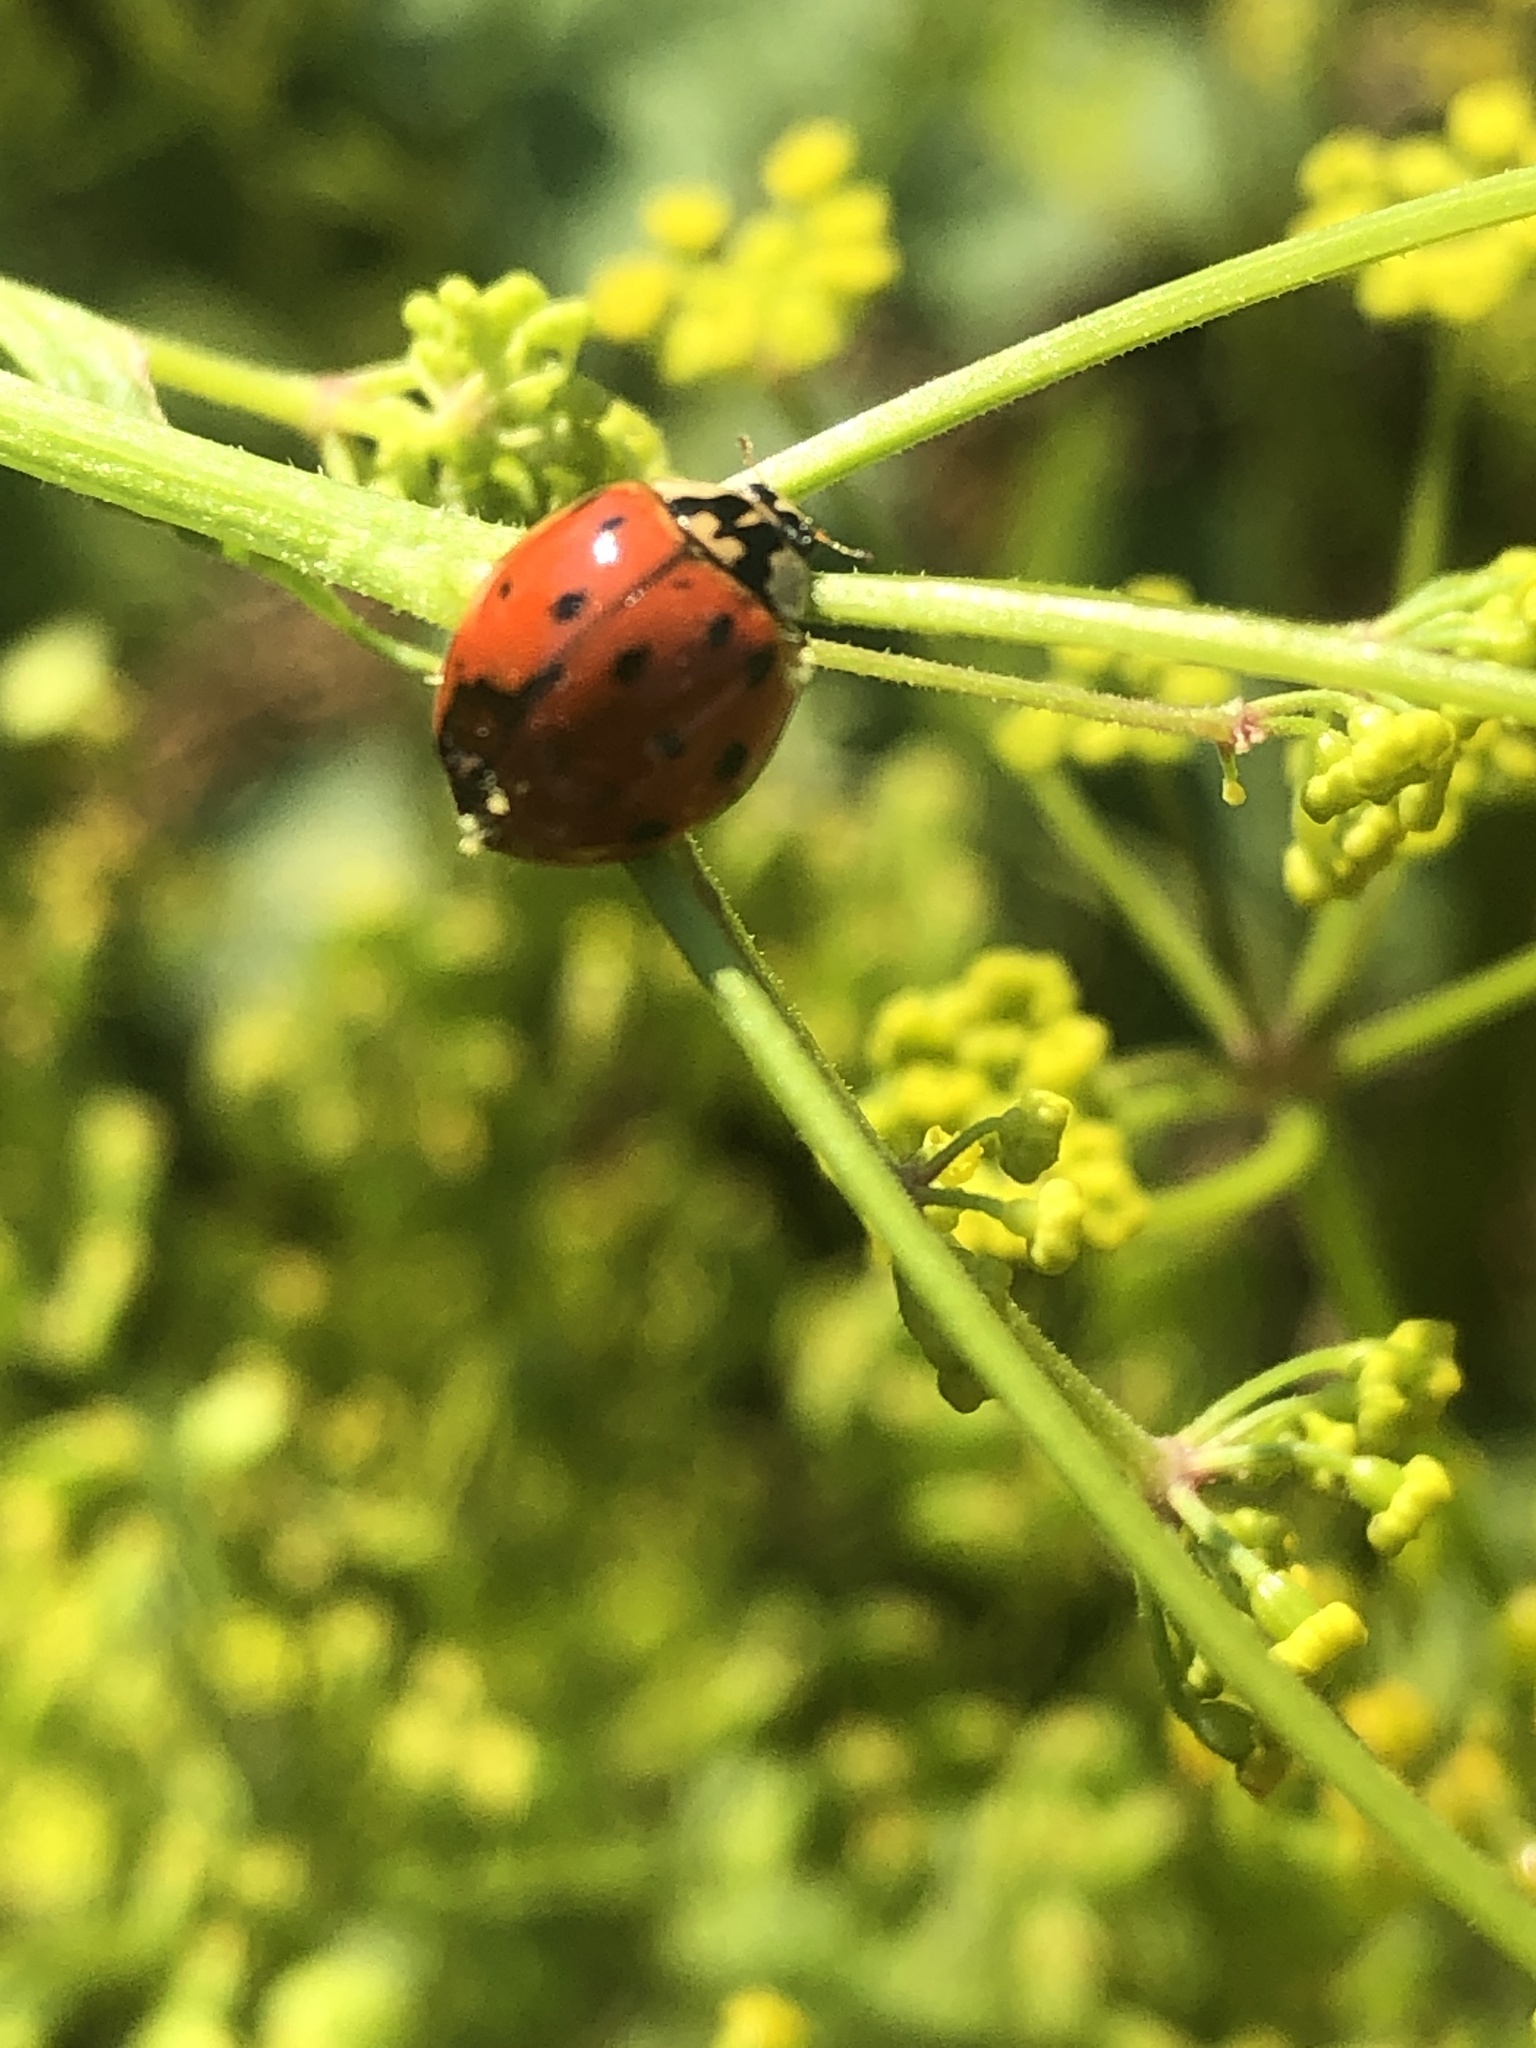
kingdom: Animalia
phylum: Arthropoda
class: Insecta
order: Coleoptera
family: Coccinellidae
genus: Harmonia
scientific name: Harmonia axyridis
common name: Harlequin ladybird
